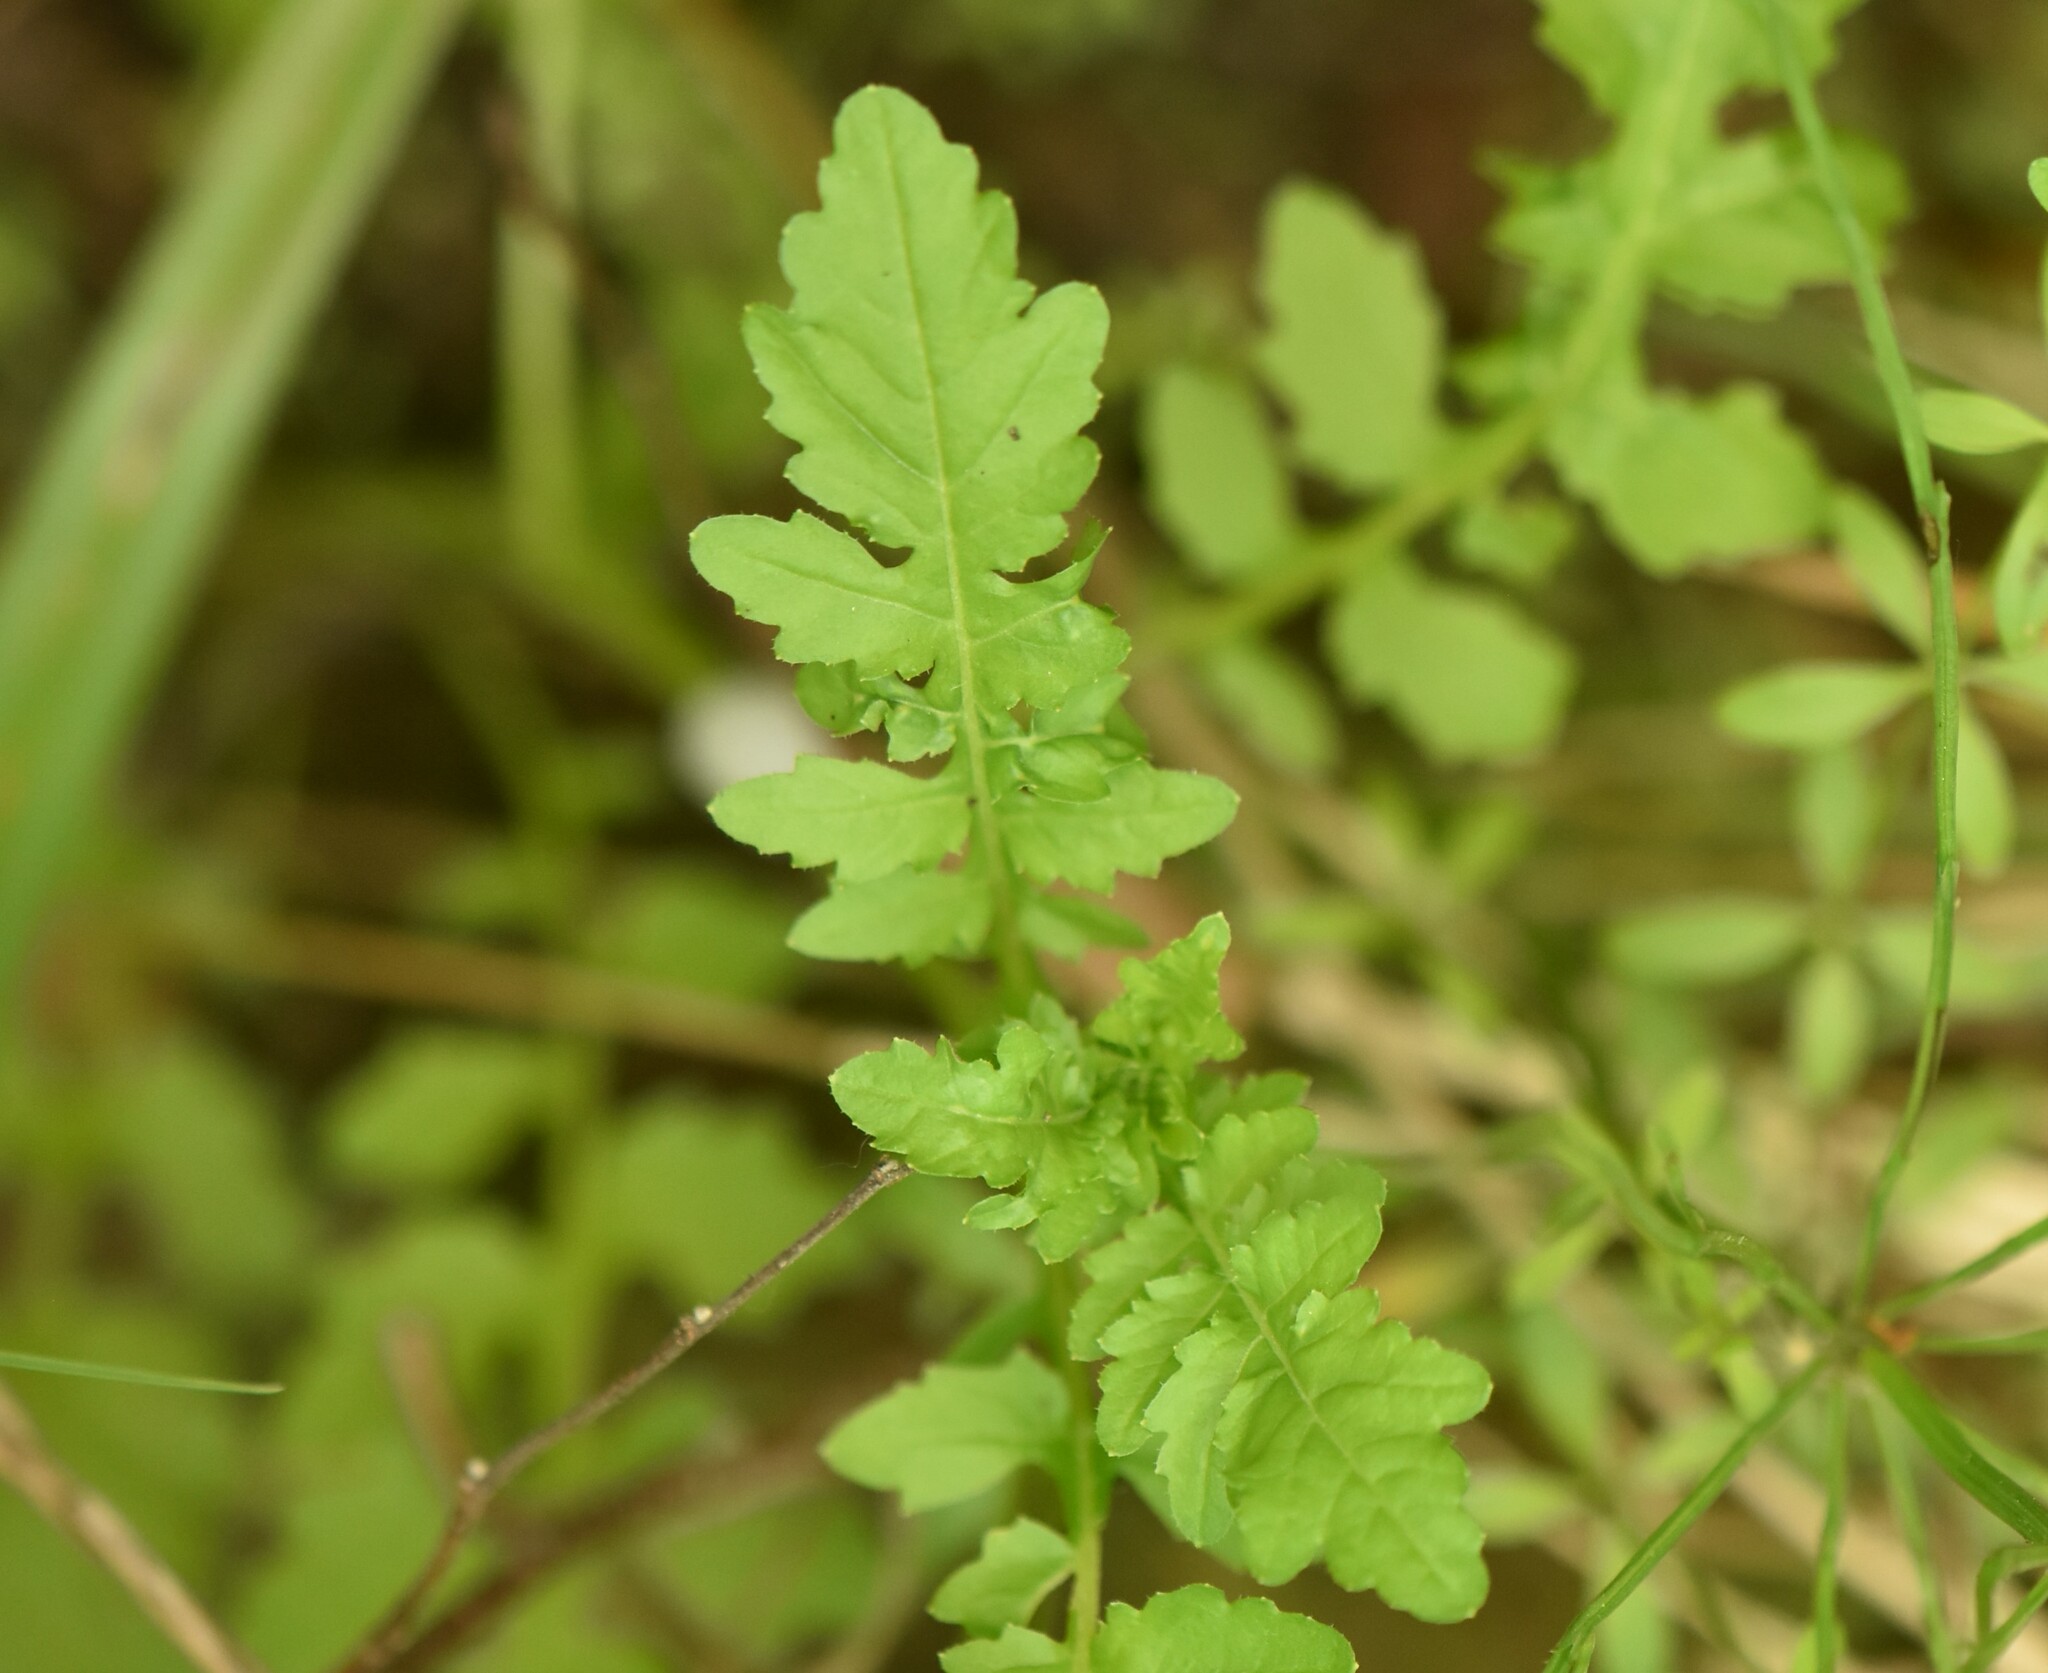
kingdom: Plantae
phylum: Tracheophyta
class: Magnoliopsida
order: Brassicales
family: Brassicaceae
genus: Rorippa
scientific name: Rorippa palustris
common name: Marsh yellow-cress
